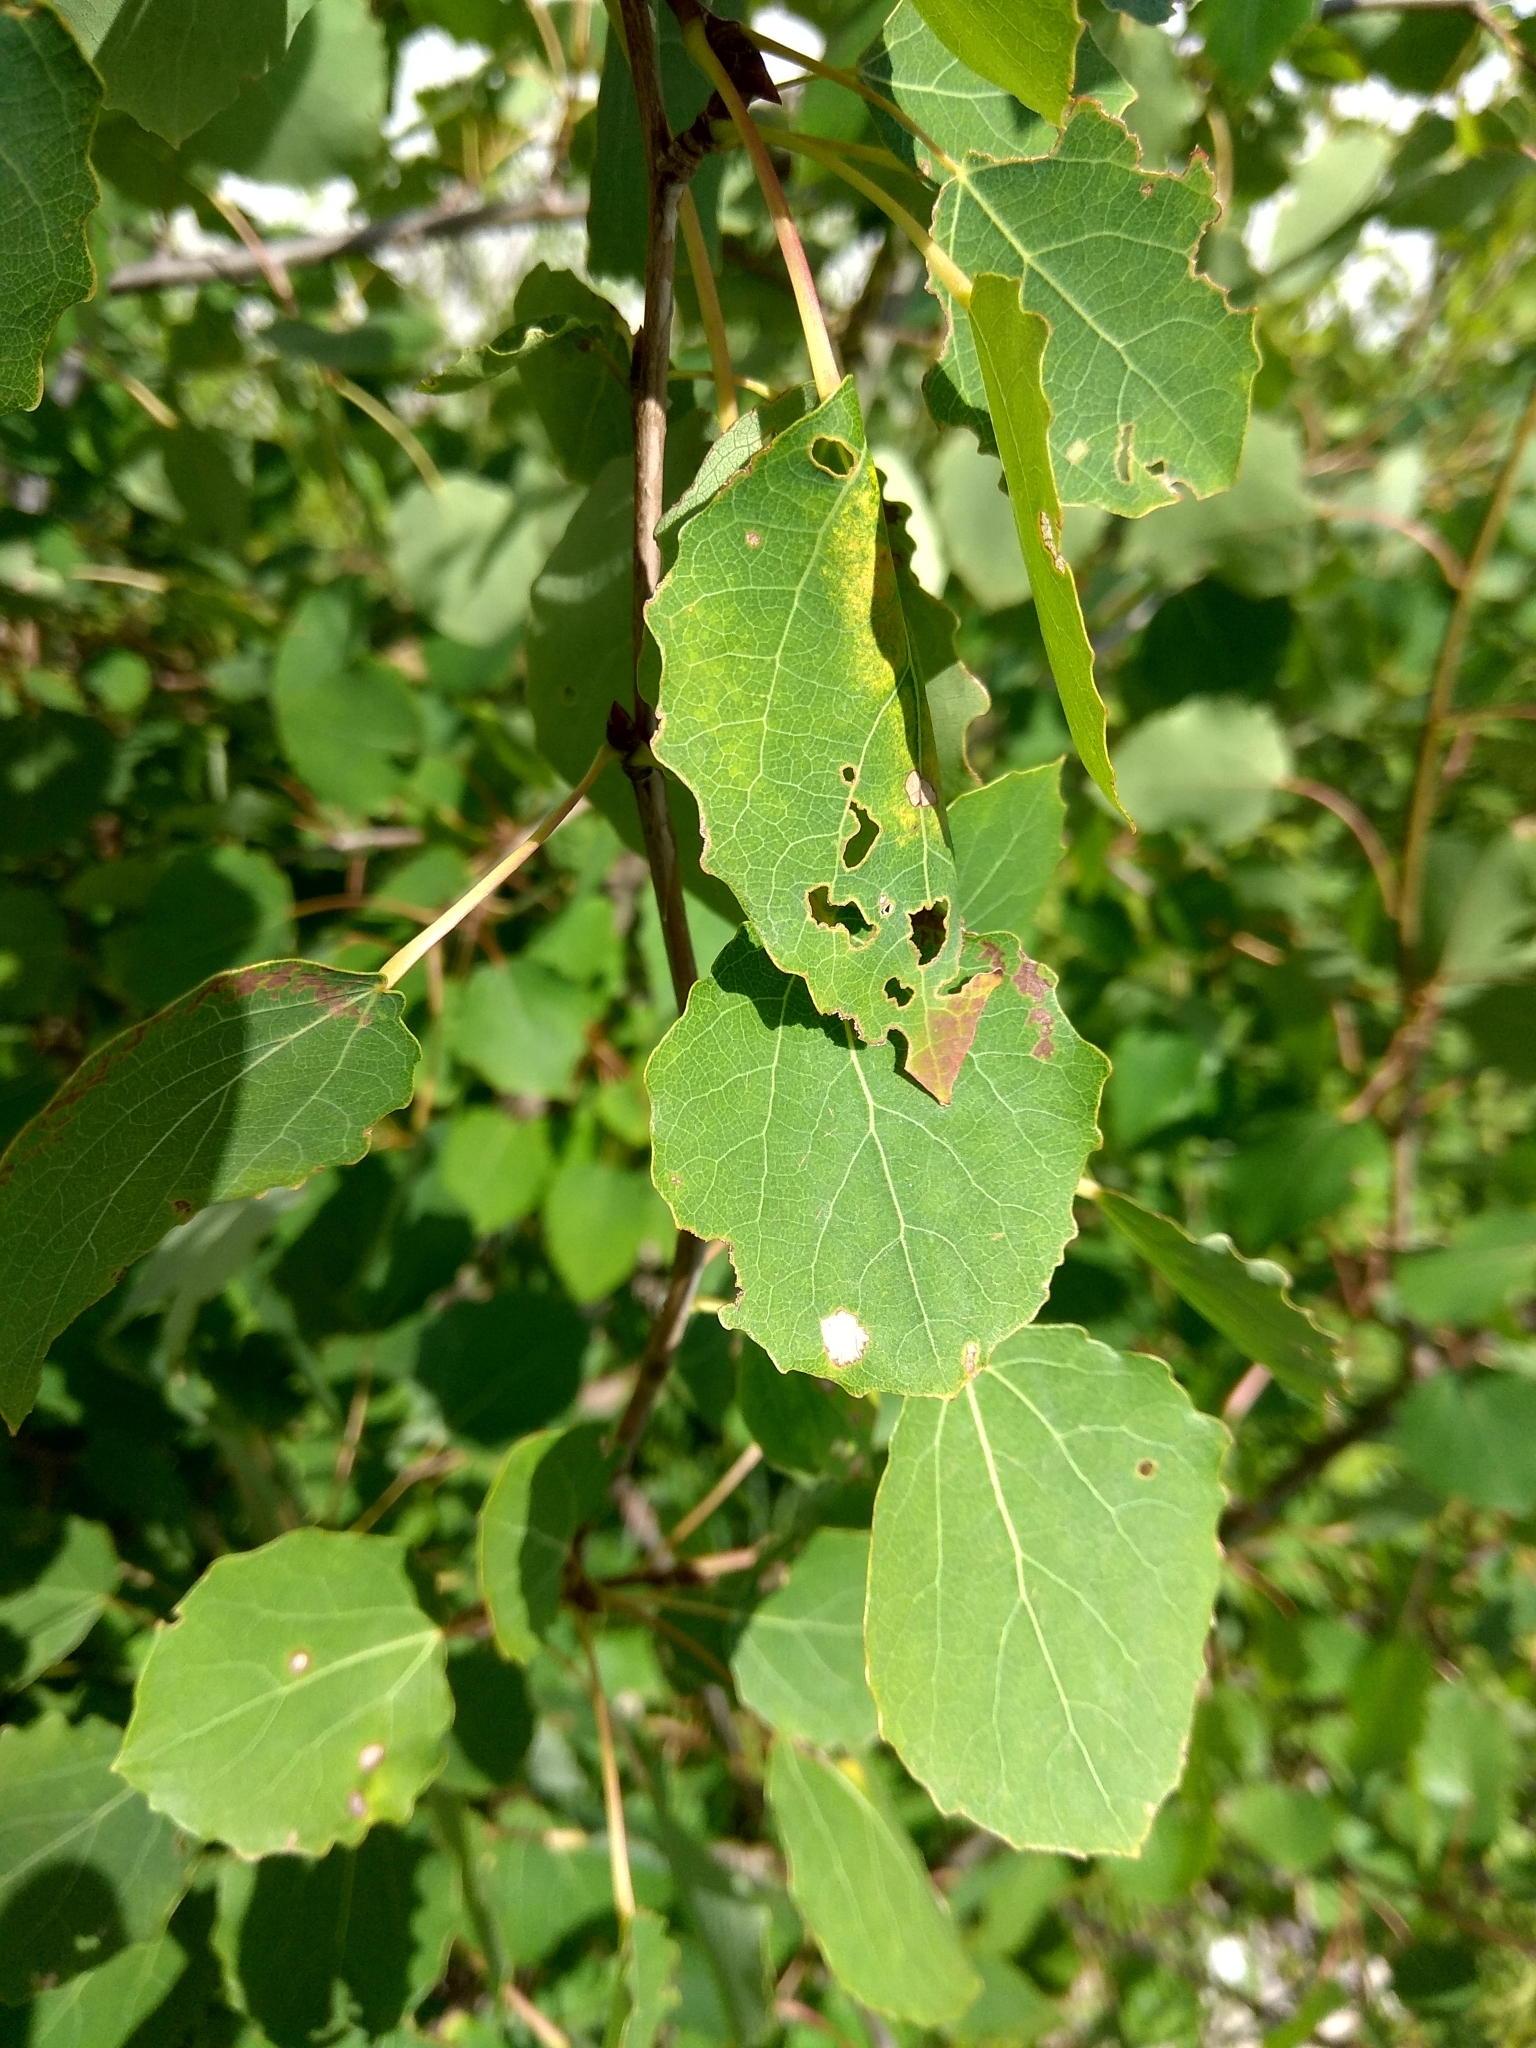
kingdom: Plantae
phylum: Tracheophyta
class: Magnoliopsida
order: Malpighiales
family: Salicaceae
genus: Populus
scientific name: Populus tremula
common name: European aspen
